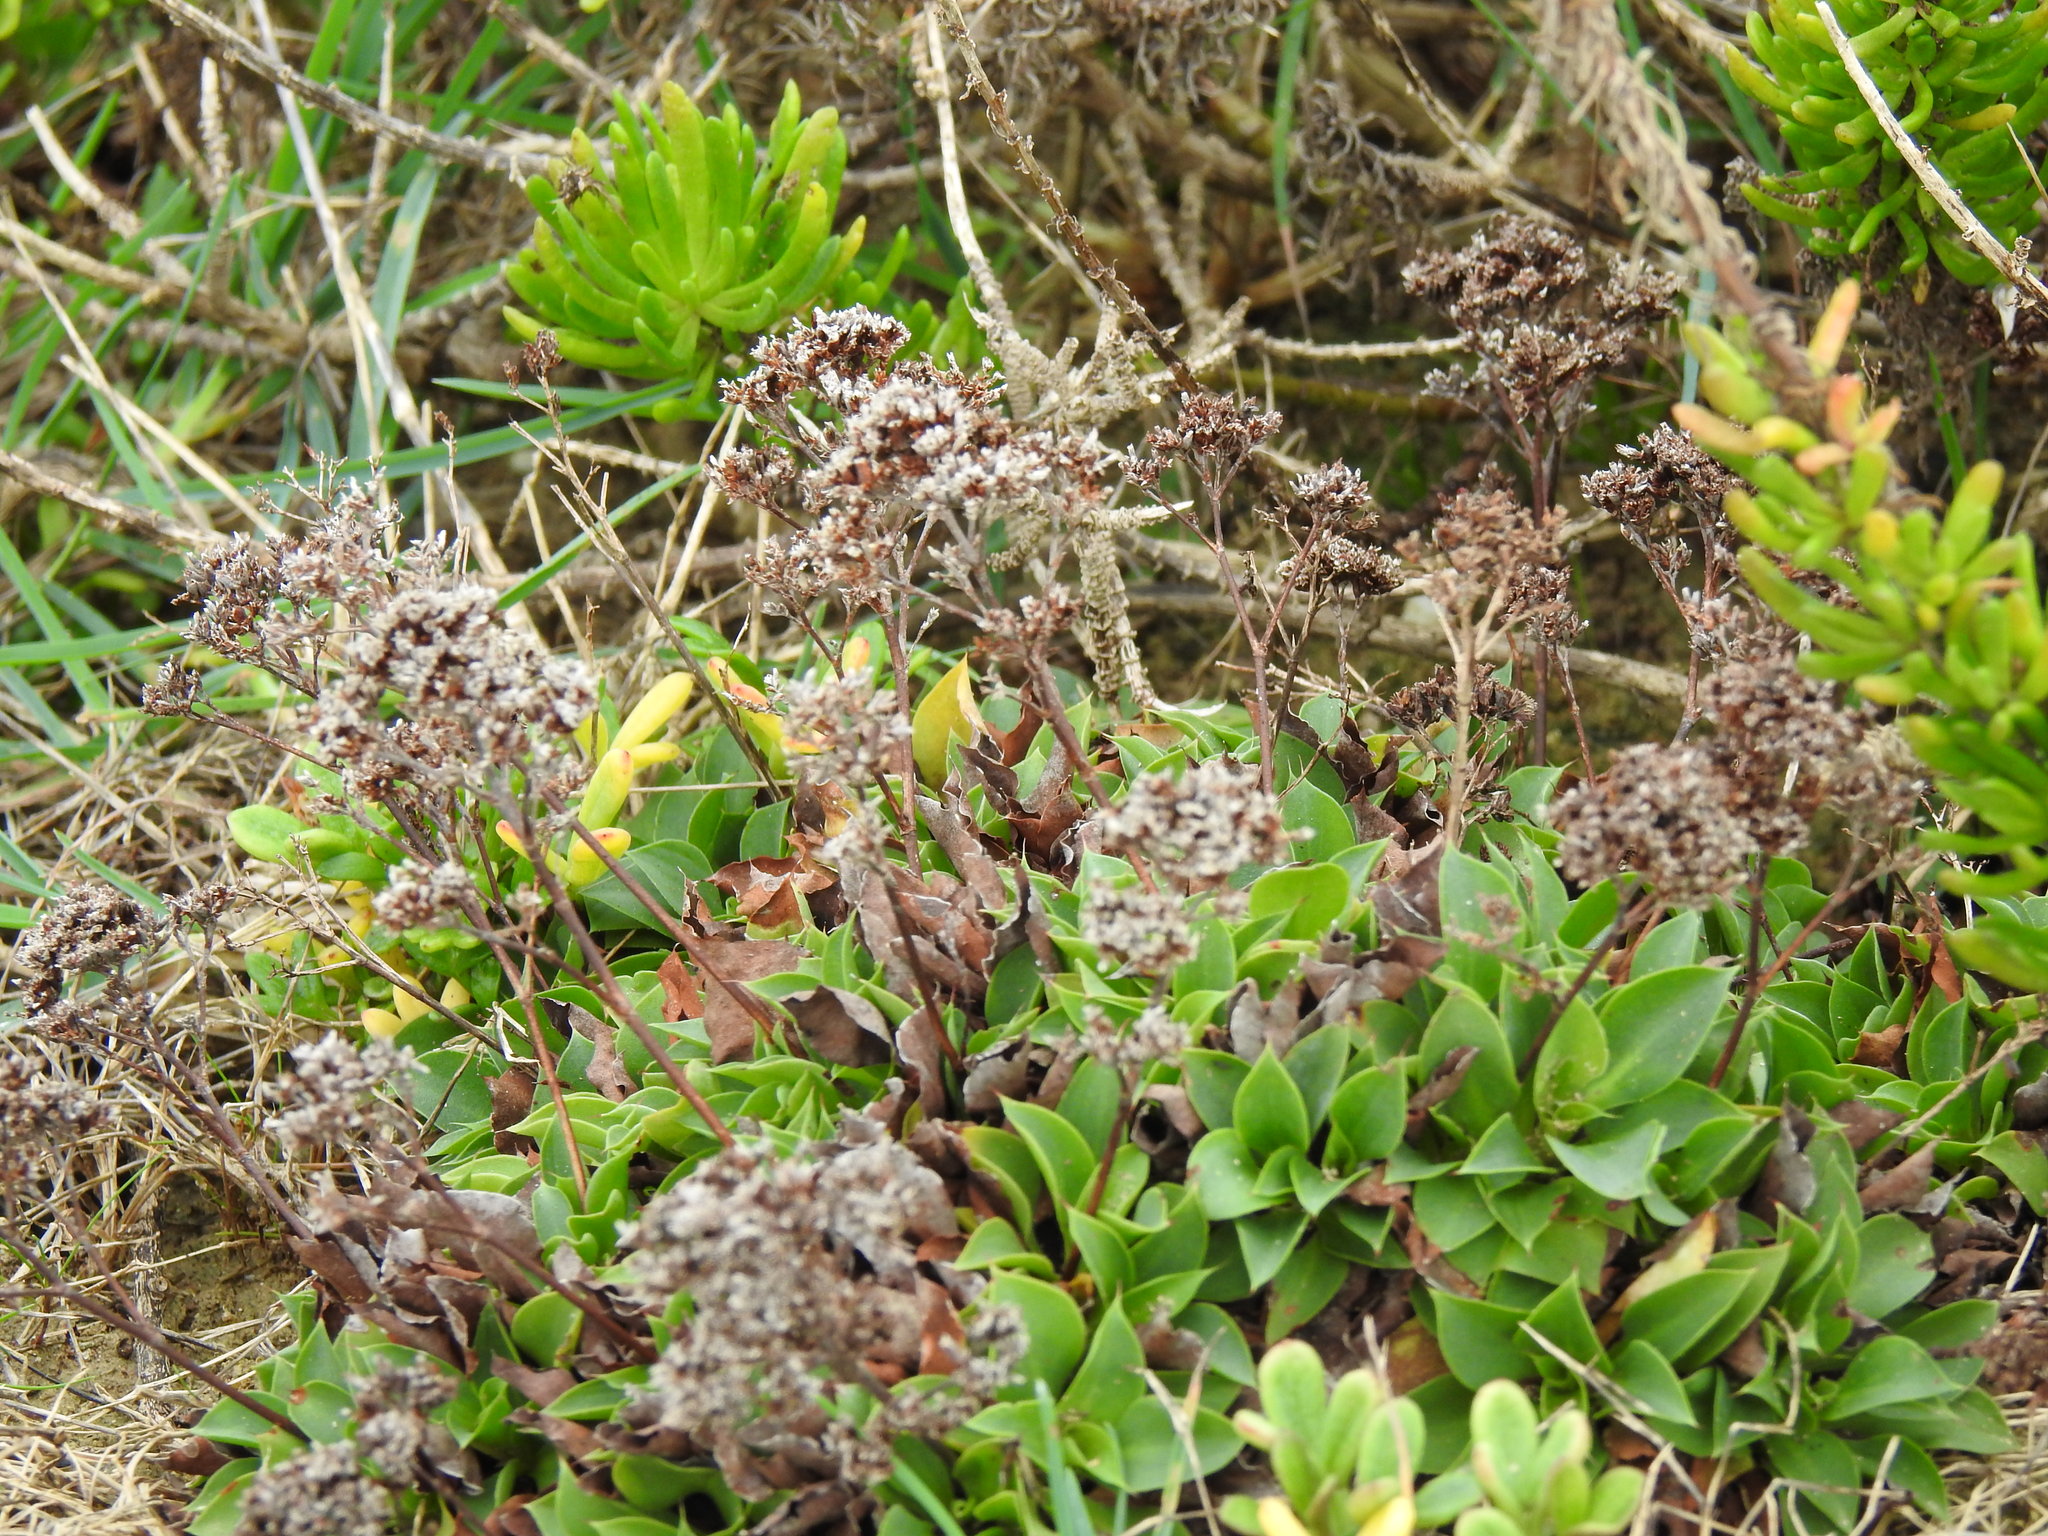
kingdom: Plantae
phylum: Tracheophyta
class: Magnoliopsida
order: Caryophyllales
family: Plumbaginaceae
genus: Limonium
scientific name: Limonium auriculifolium
